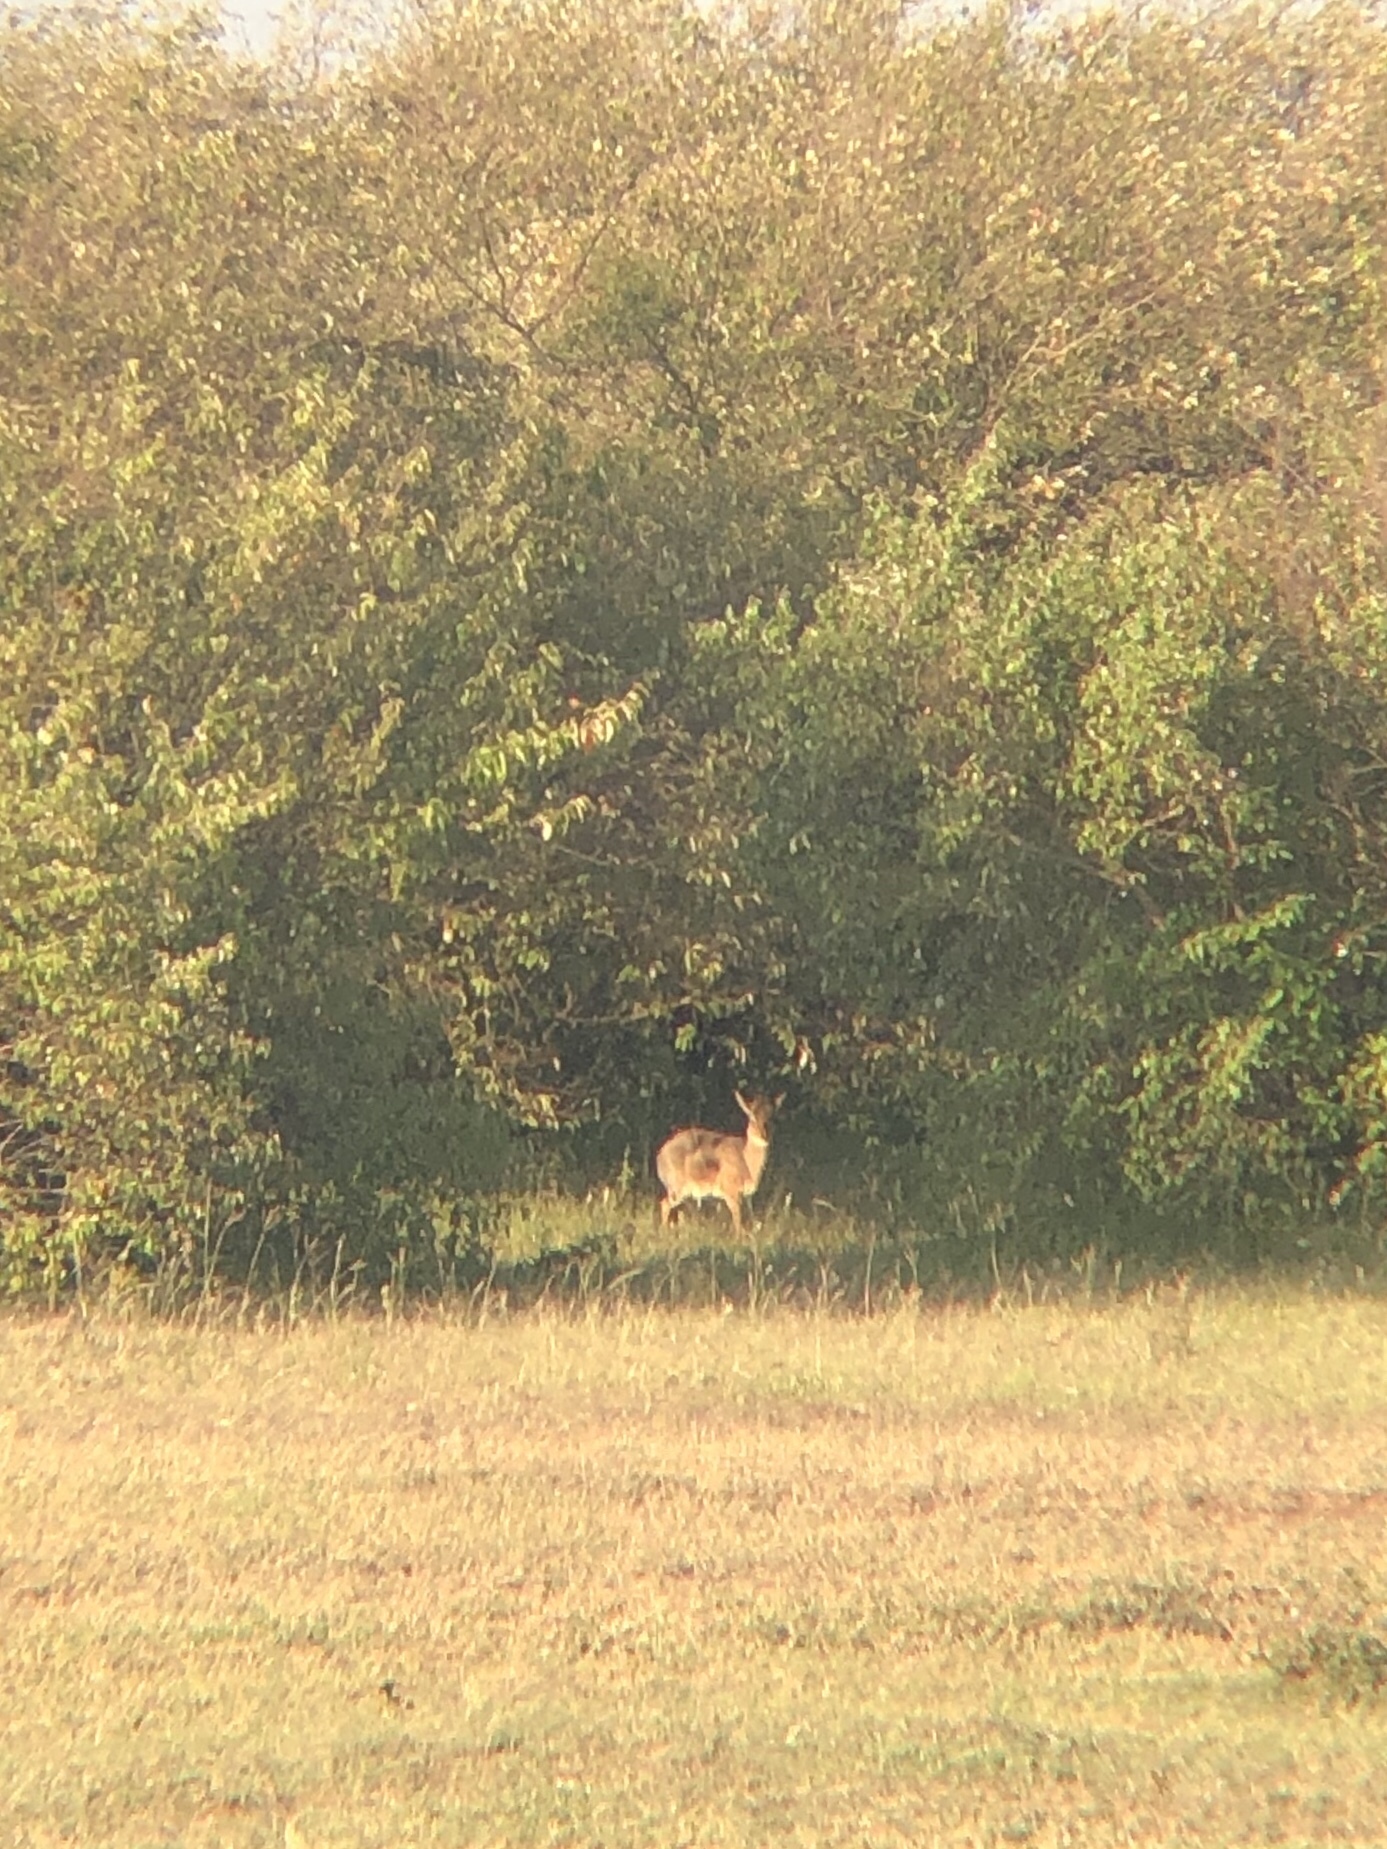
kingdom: Animalia
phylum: Chordata
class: Mammalia
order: Artiodactyla
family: Bovidae
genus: Madoqua
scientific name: Madoqua
